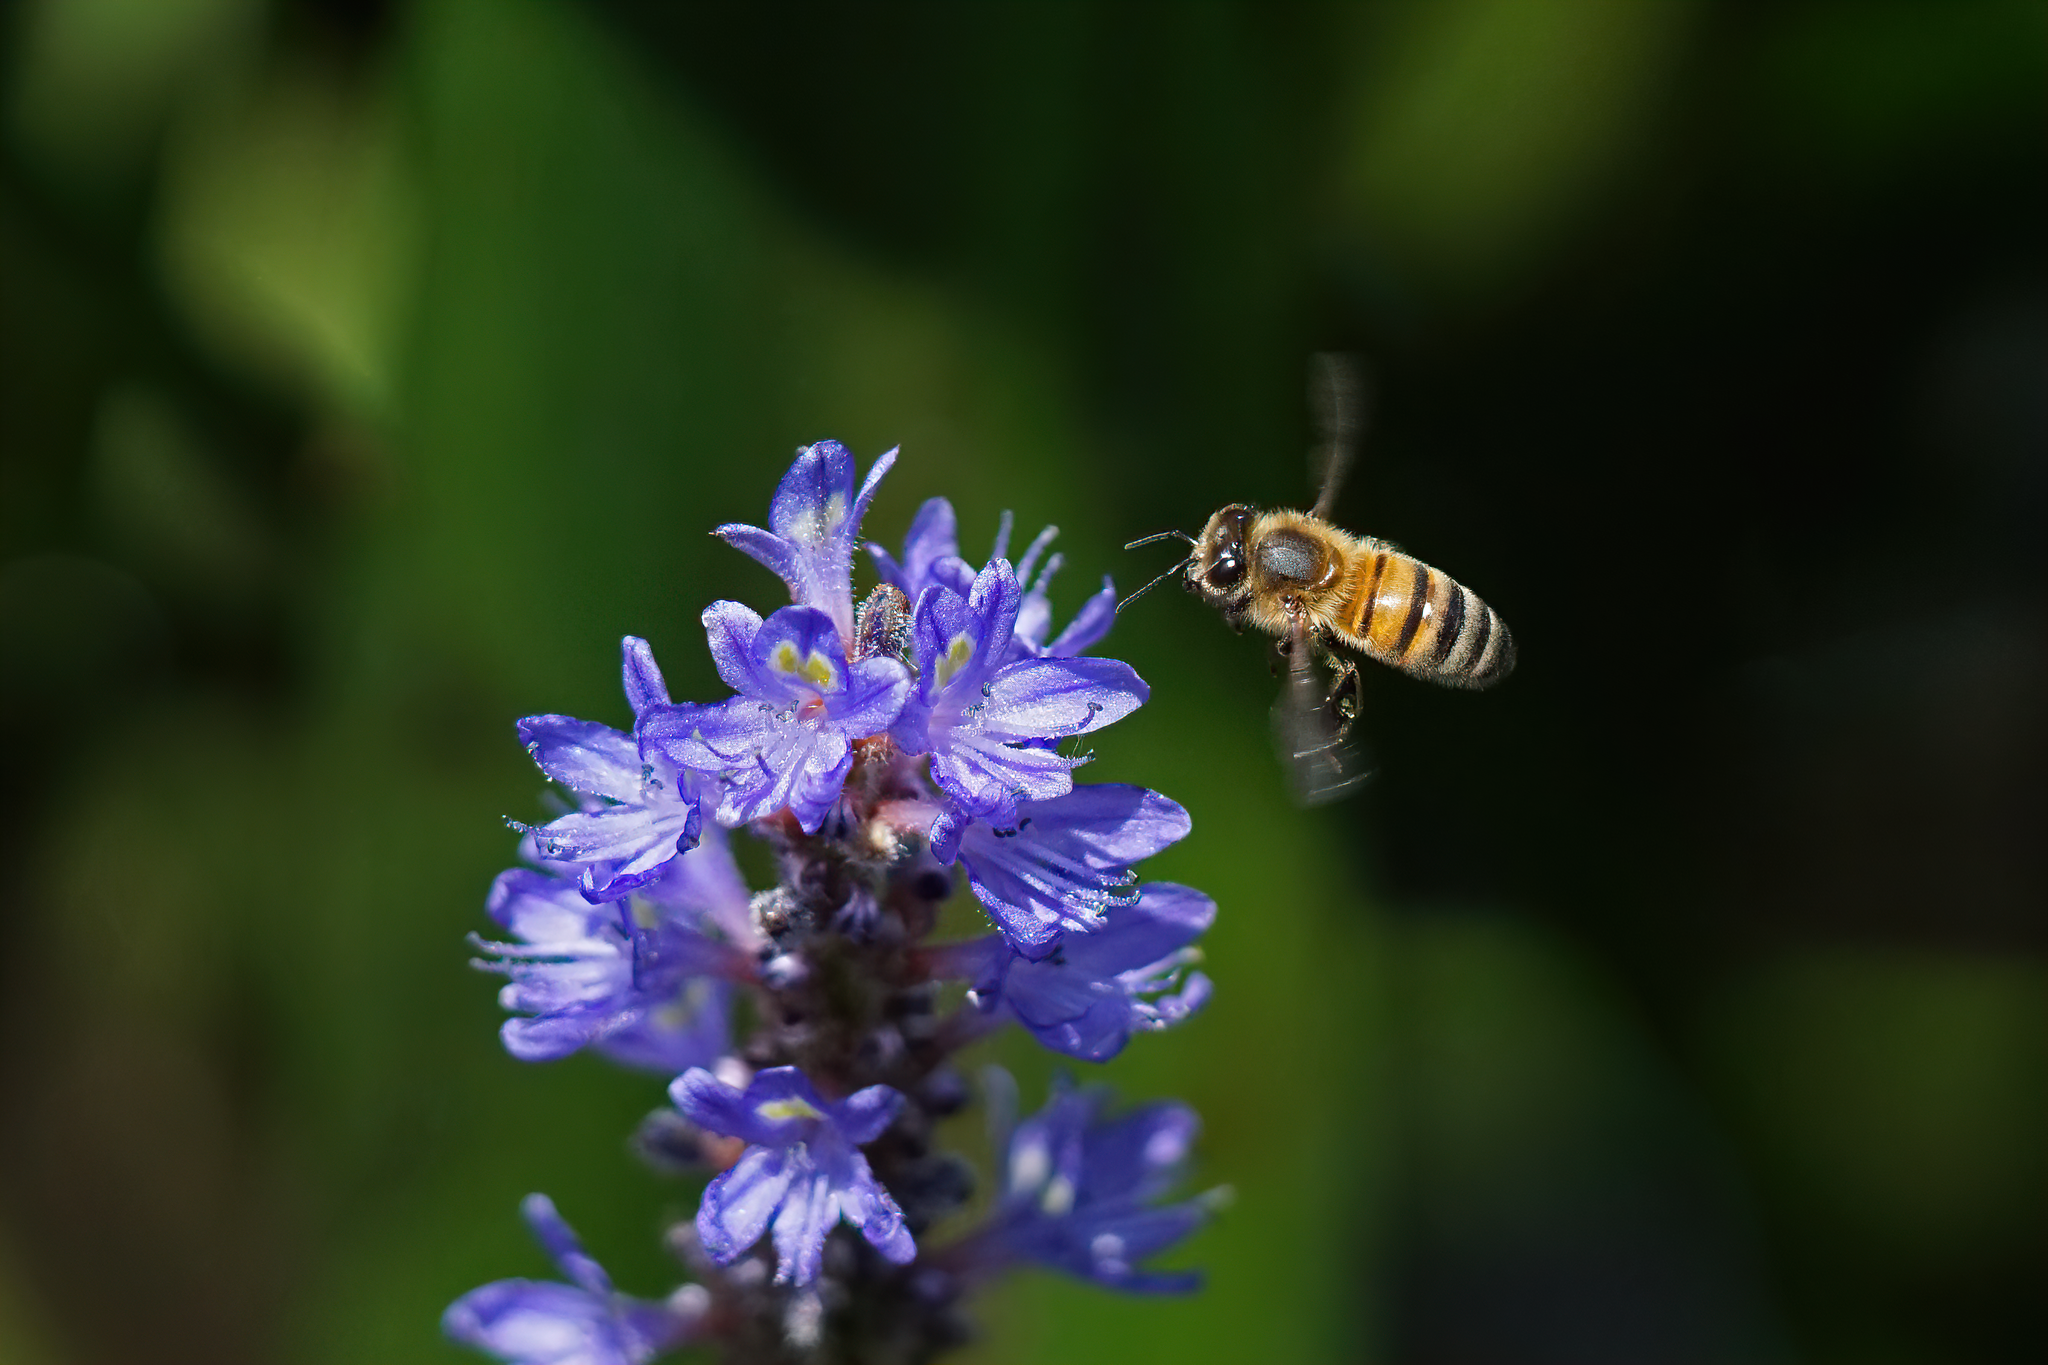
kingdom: Animalia
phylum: Arthropoda
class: Insecta
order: Hymenoptera
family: Apidae
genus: Apis
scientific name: Apis mellifera
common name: Honey bee
